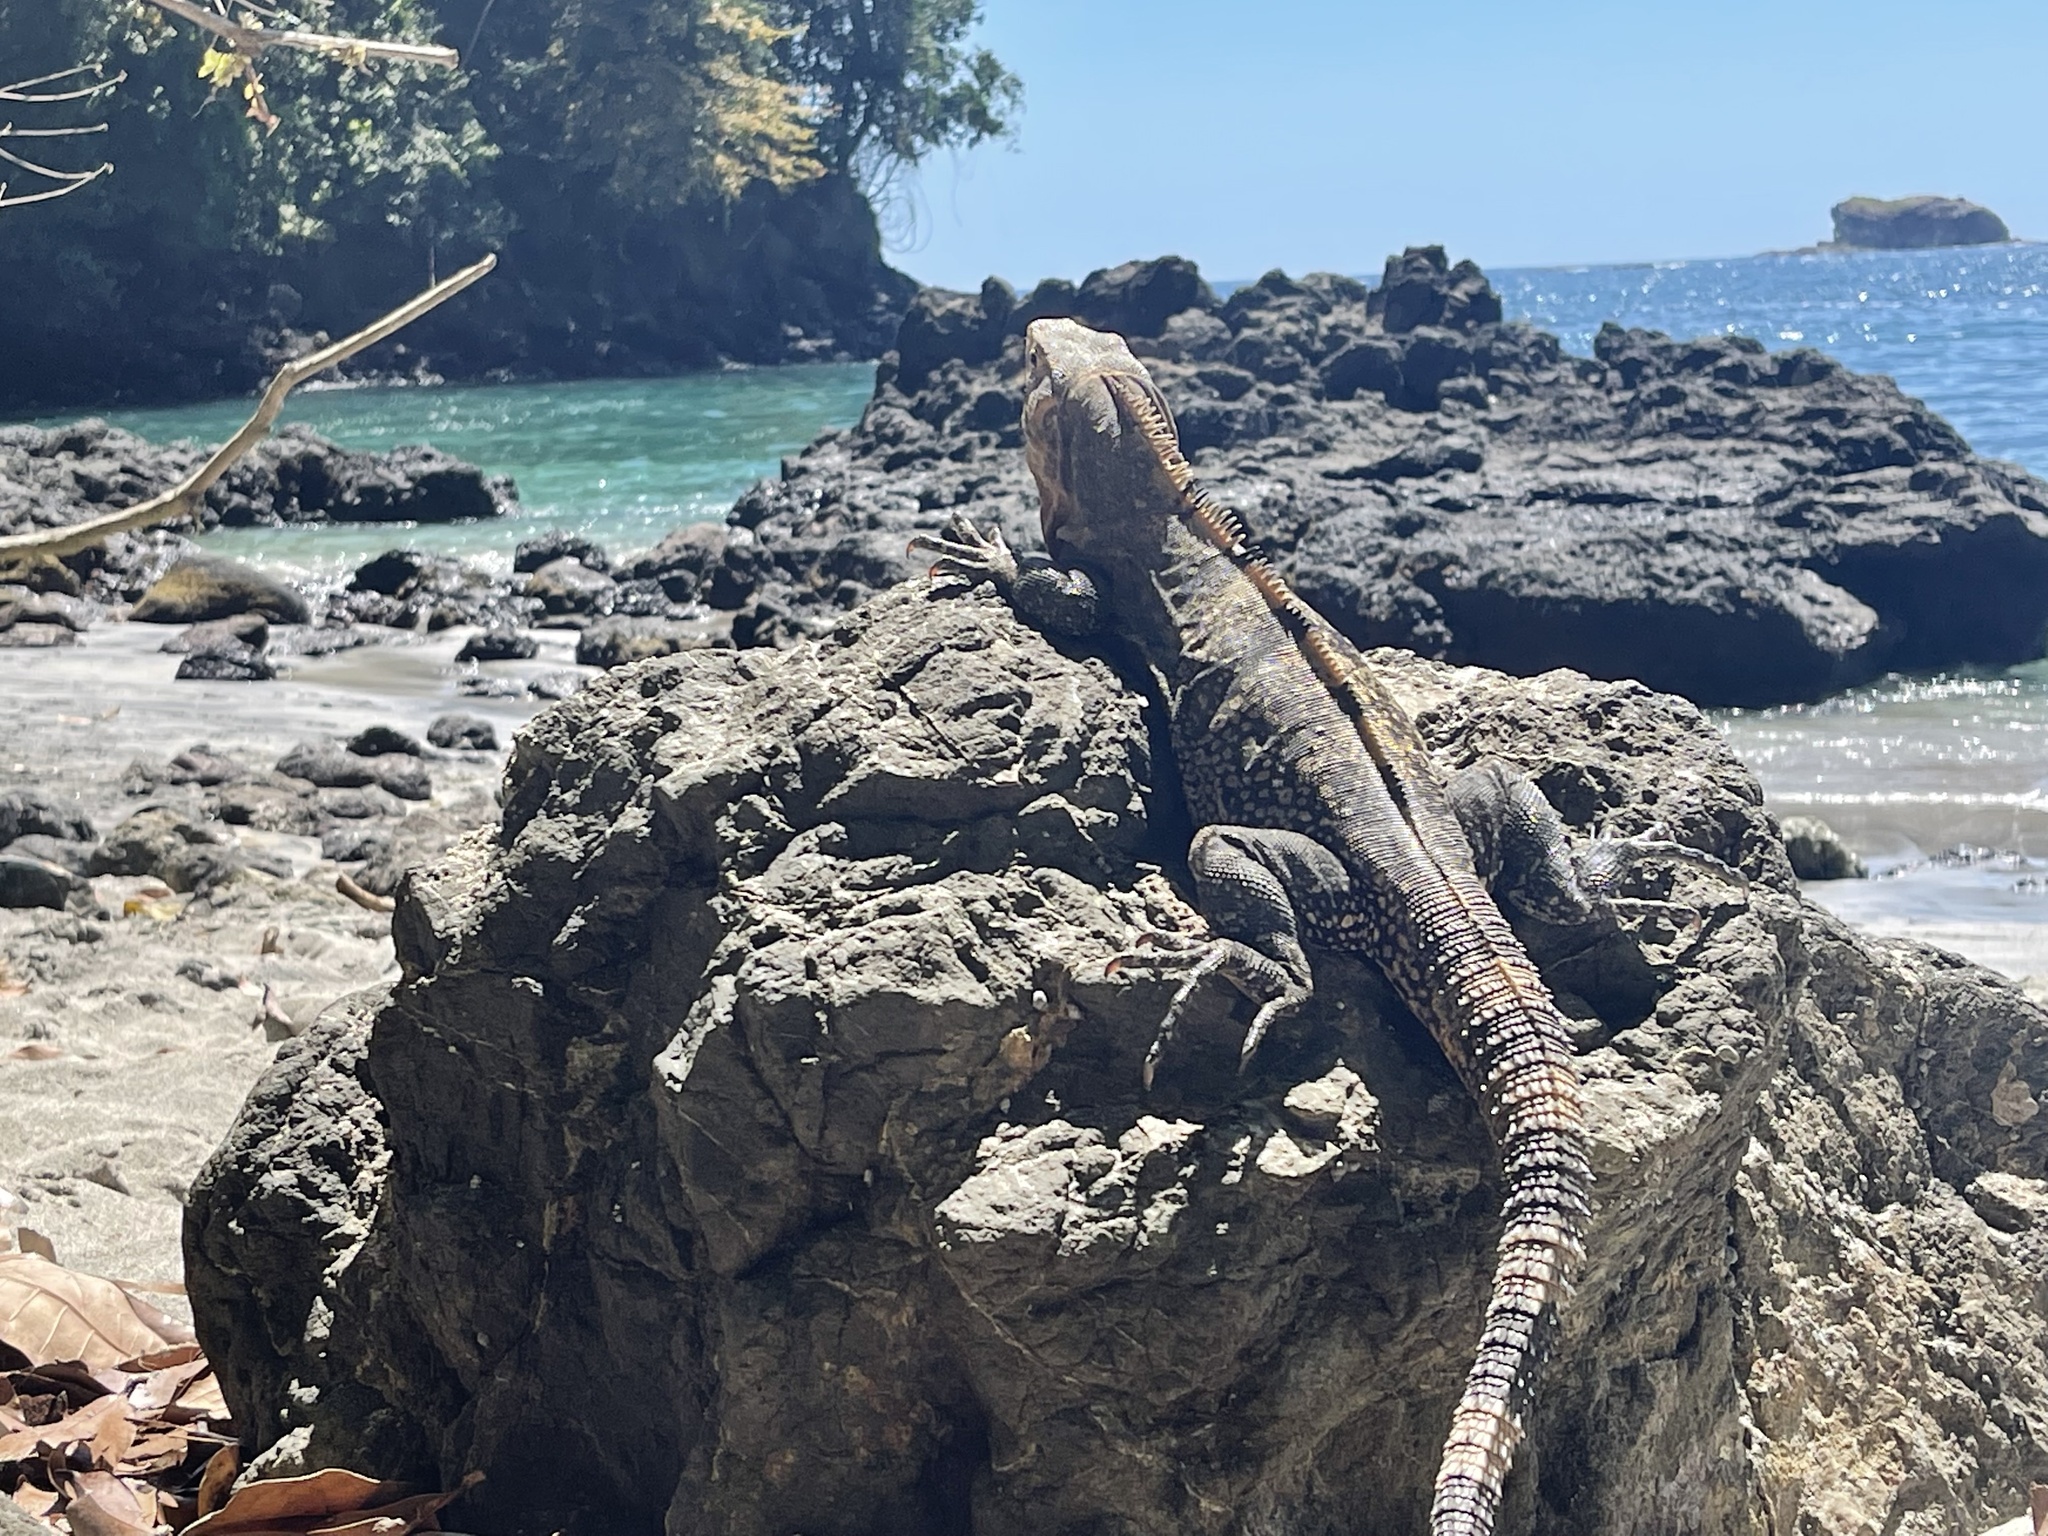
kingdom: Animalia
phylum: Chordata
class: Squamata
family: Iguanidae
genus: Ctenosaura
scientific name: Ctenosaura similis
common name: Black spiny-tailed iguana
